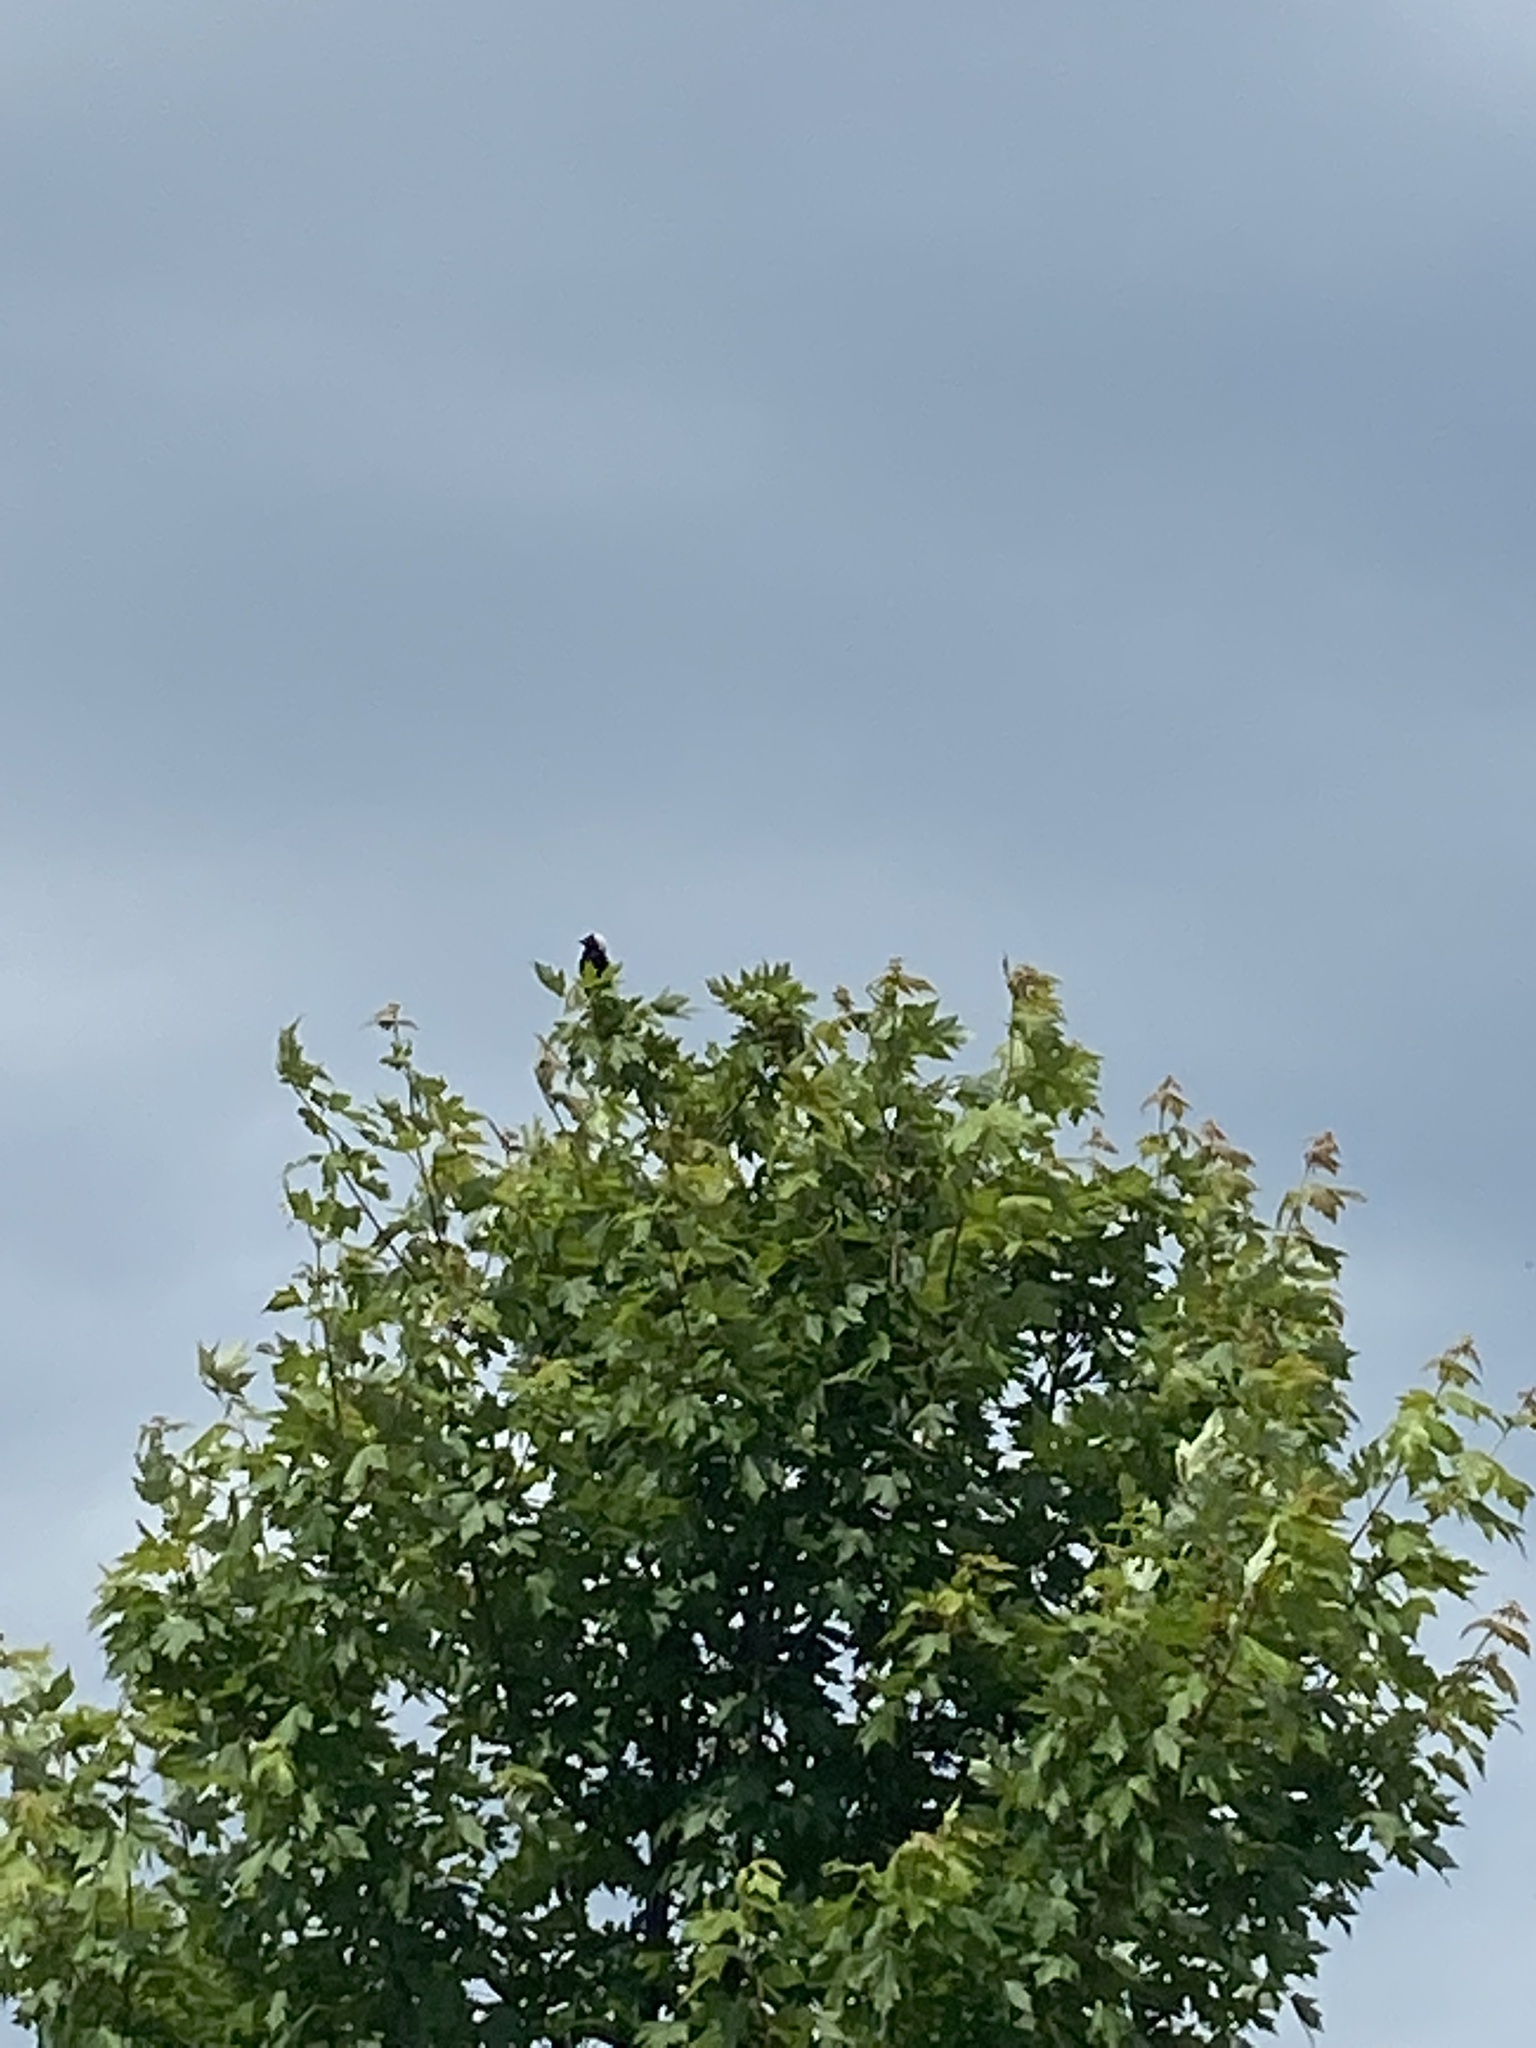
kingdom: Animalia
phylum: Chordata
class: Aves
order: Passeriformes
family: Icteridae
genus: Dolichonyx
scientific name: Dolichonyx oryzivorus
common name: Bobolink
